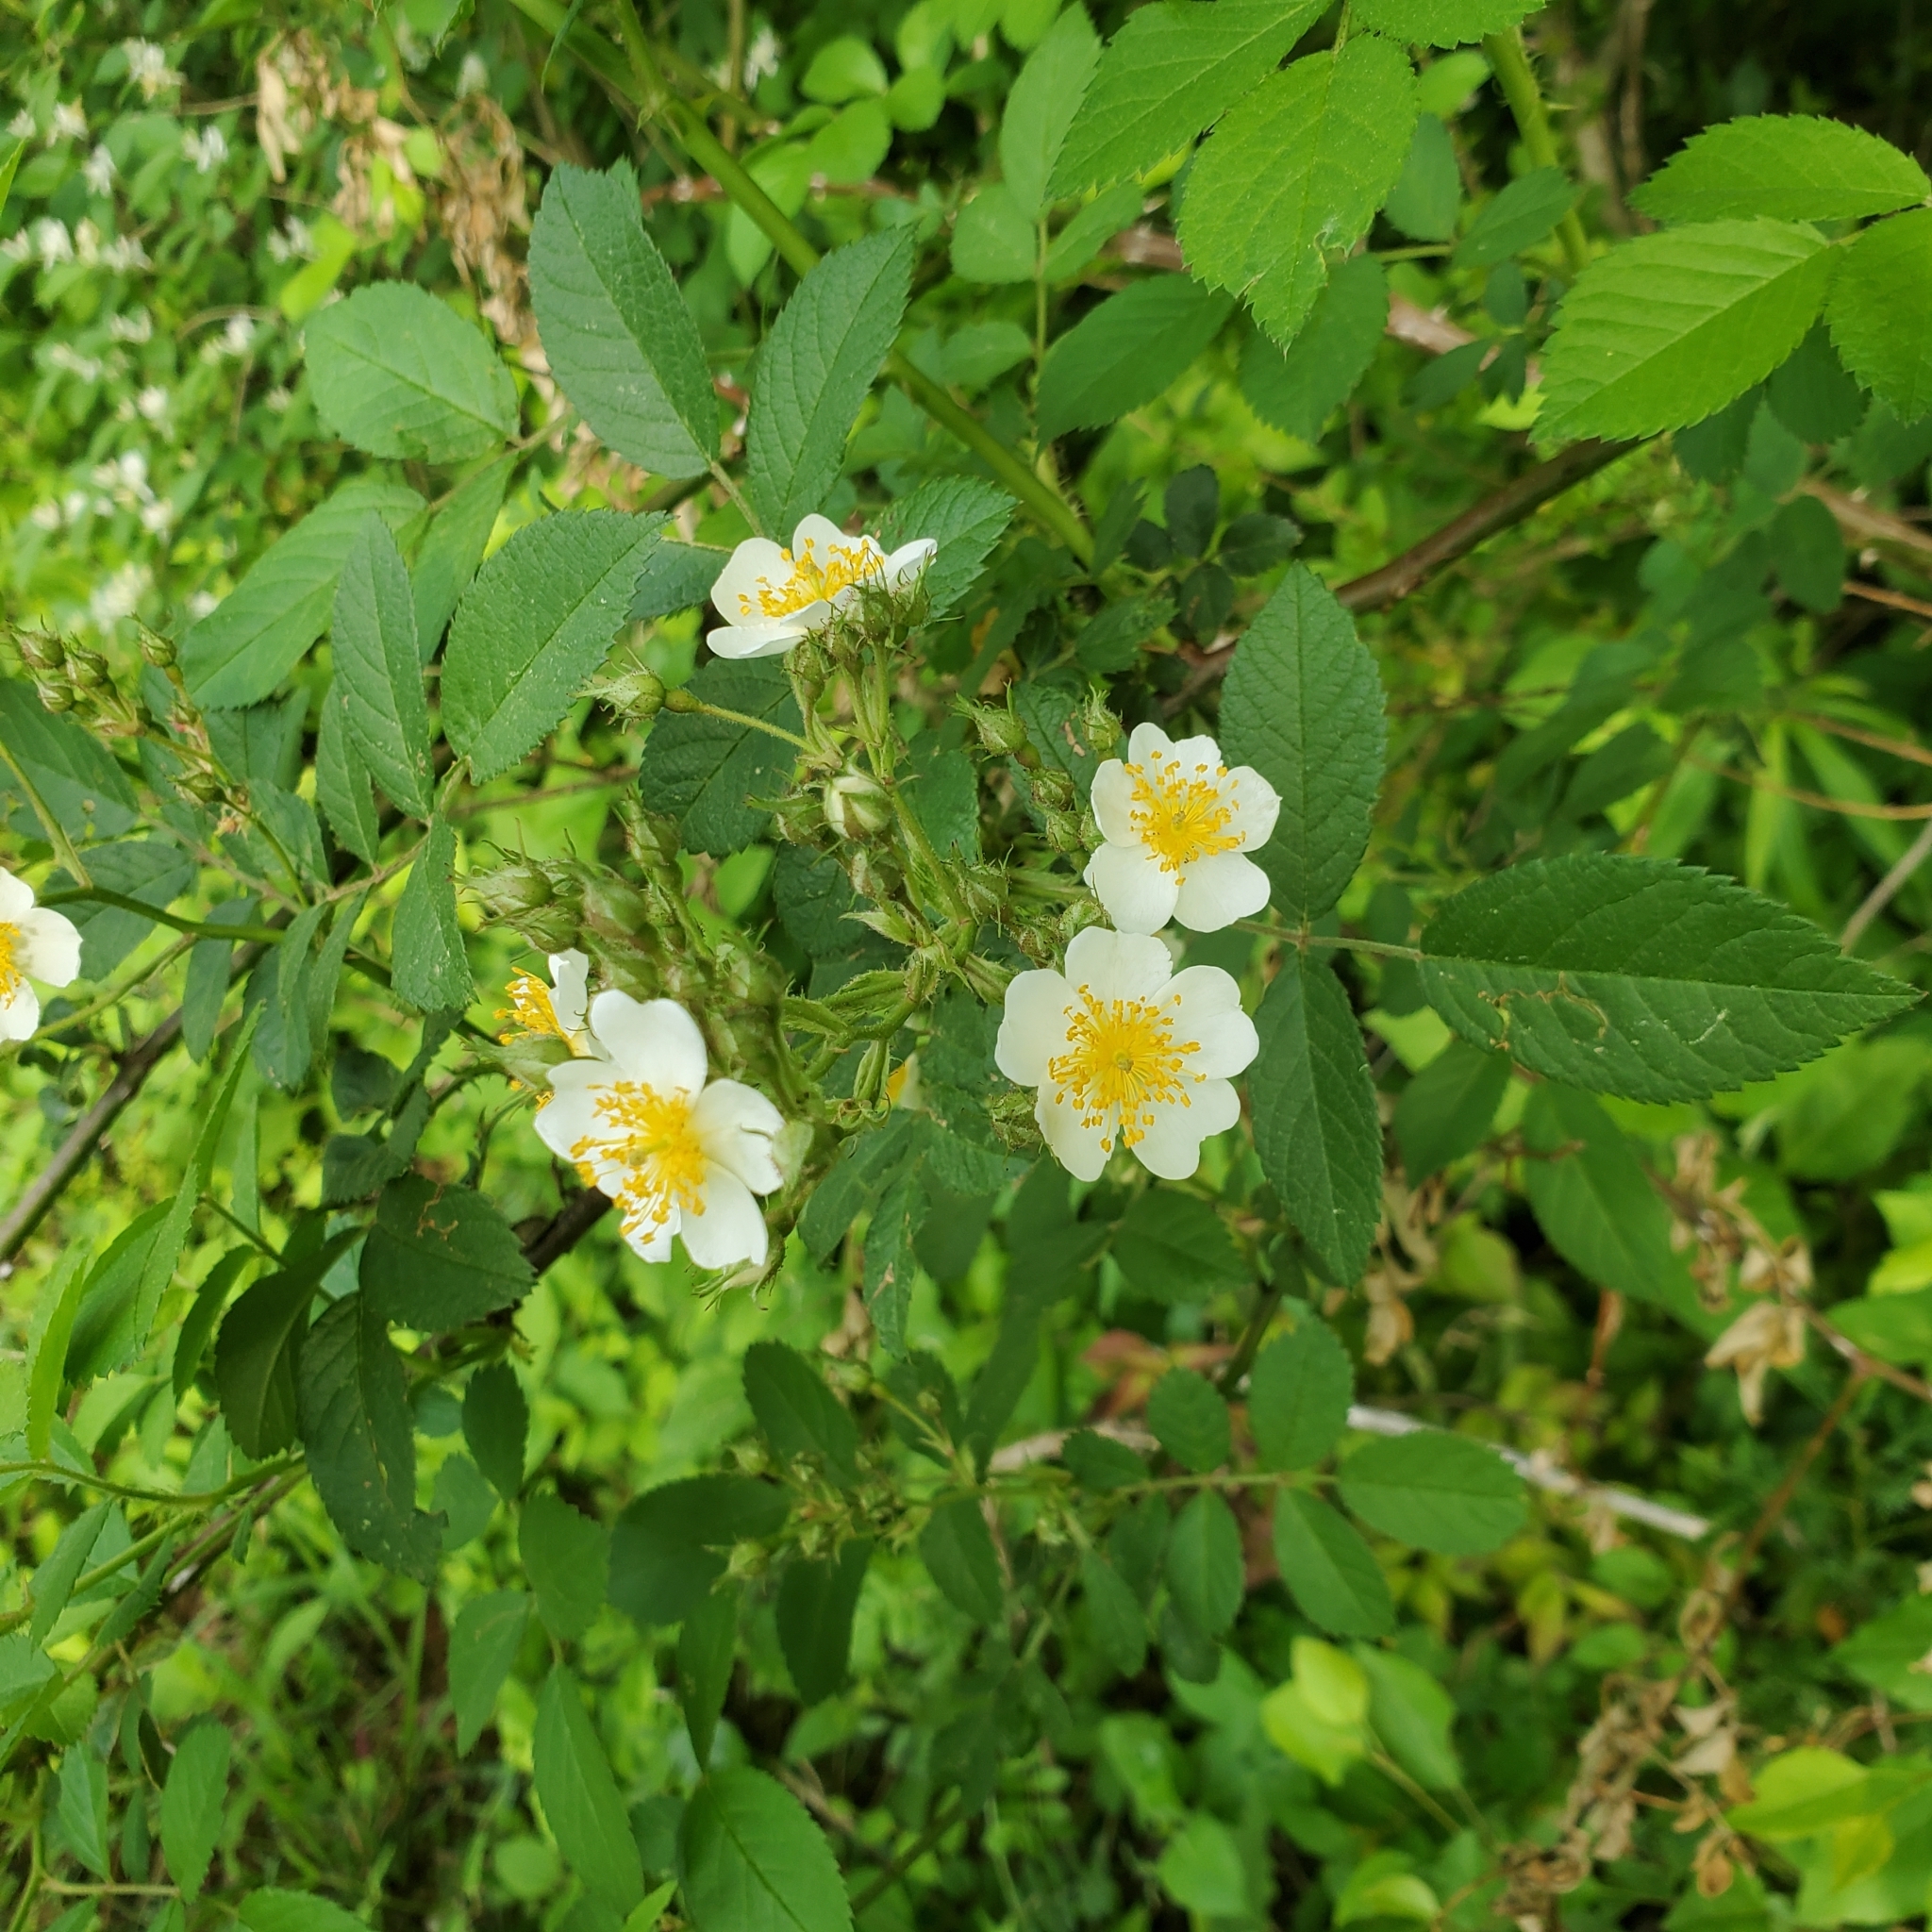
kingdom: Plantae
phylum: Tracheophyta
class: Magnoliopsida
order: Rosales
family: Rosaceae
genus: Rosa
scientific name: Rosa multiflora
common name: Multiflora rose
